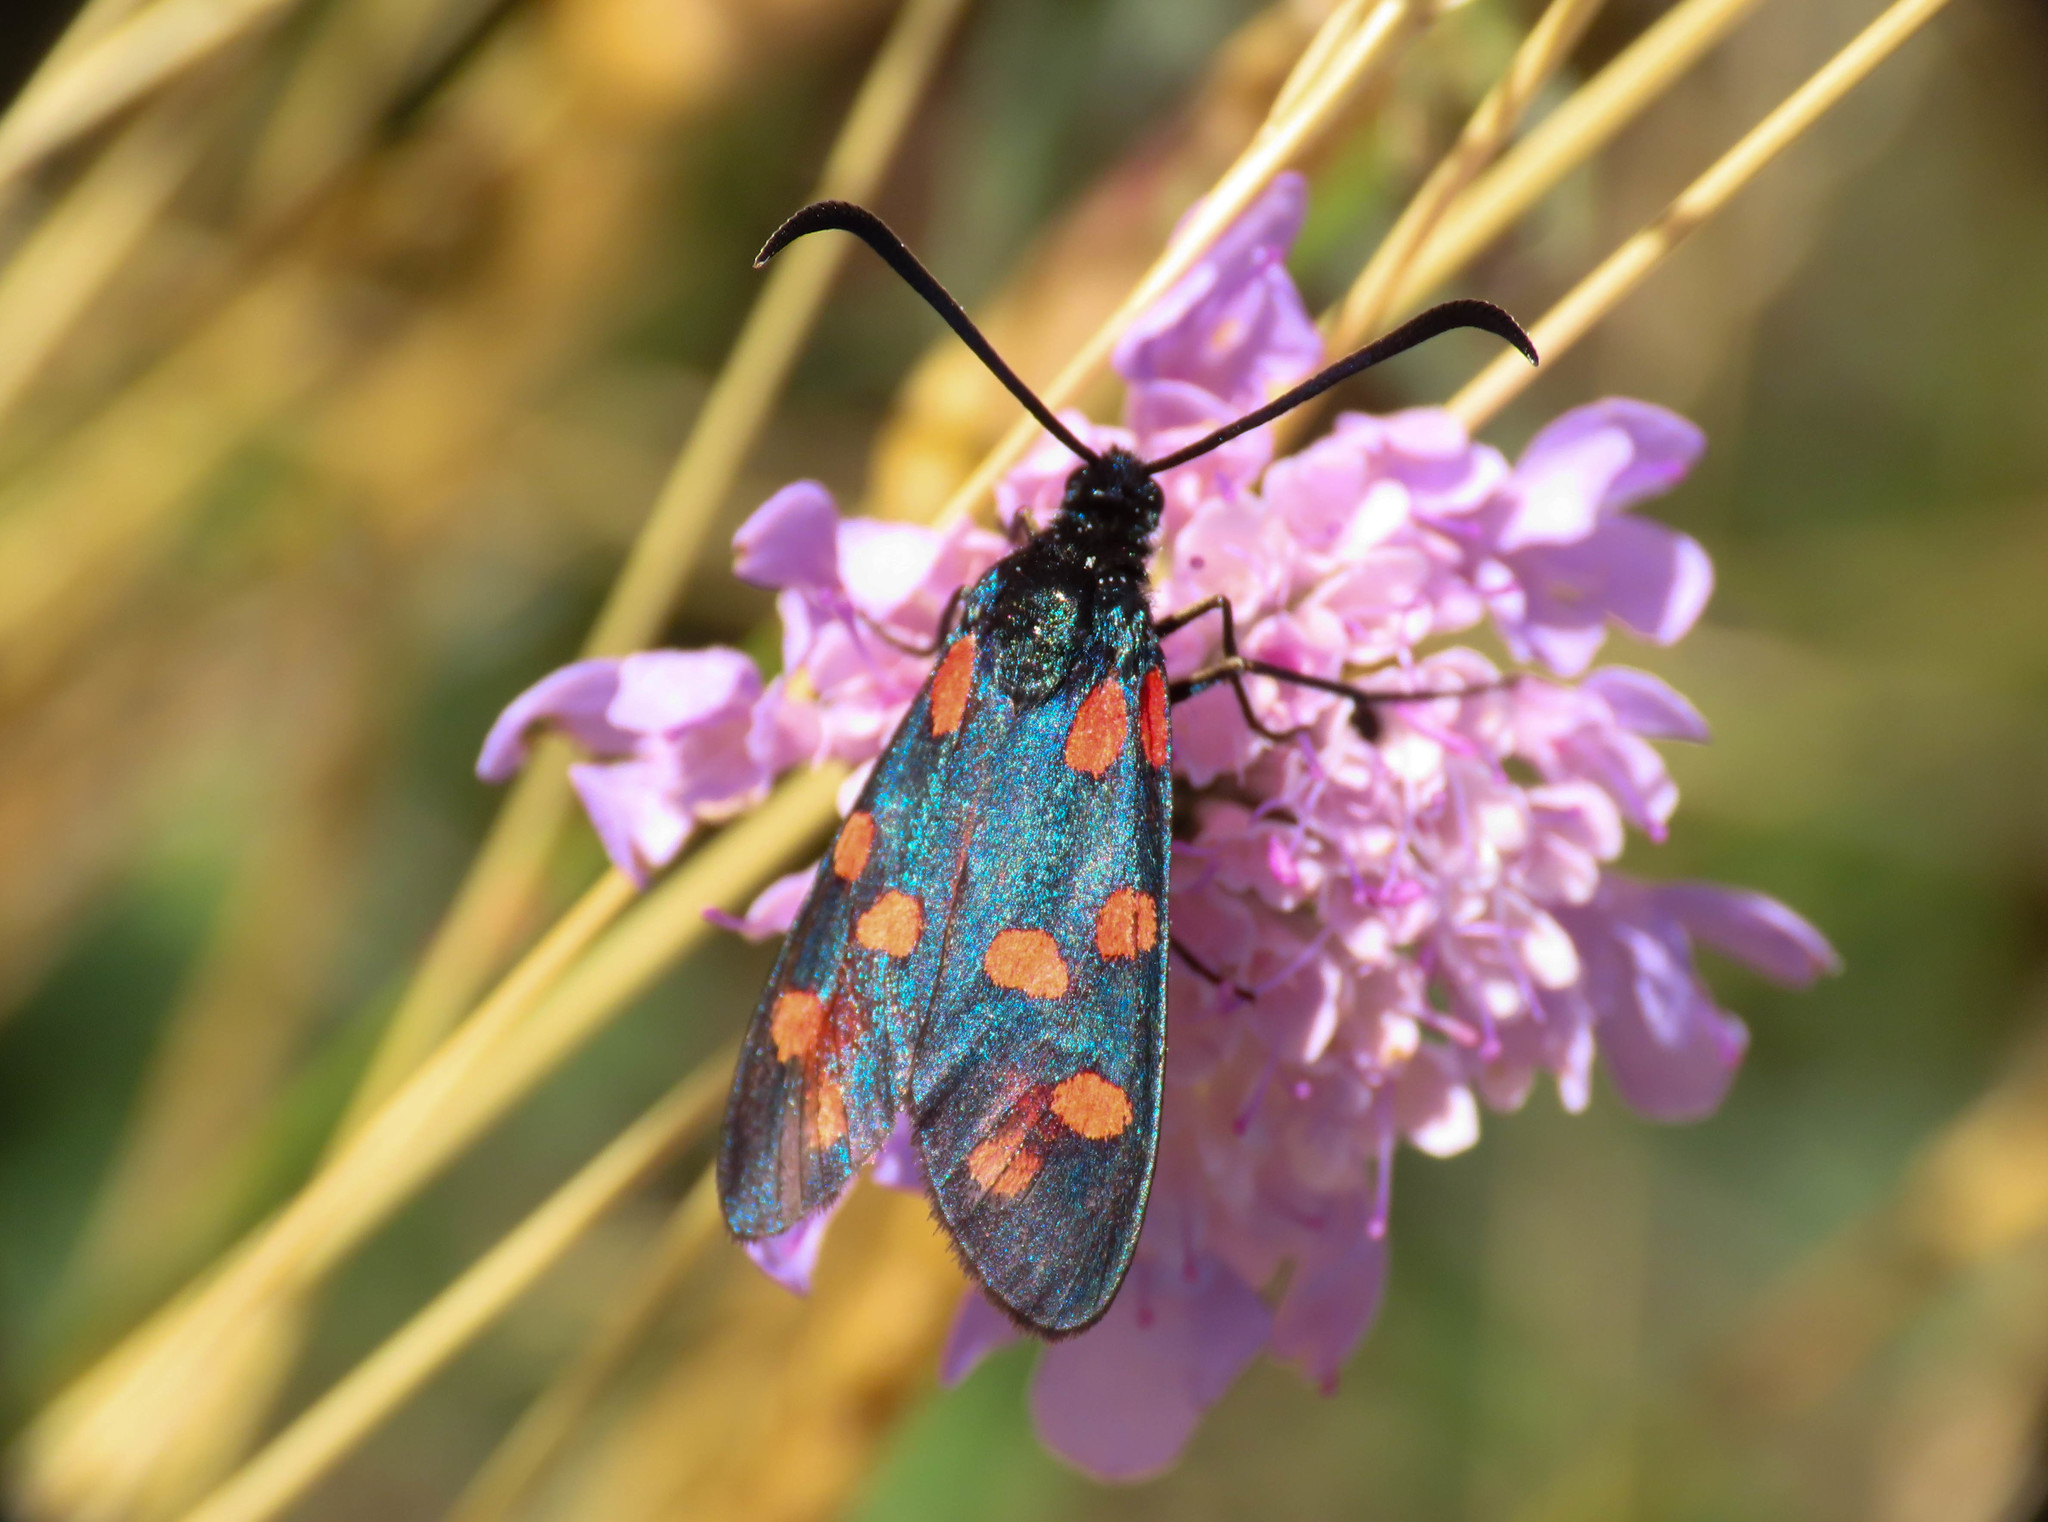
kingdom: Animalia
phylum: Arthropoda
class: Insecta
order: Lepidoptera
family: Zygaenidae
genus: Zygaena
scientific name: Zygaena transalpina
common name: Southern six spot burnet
